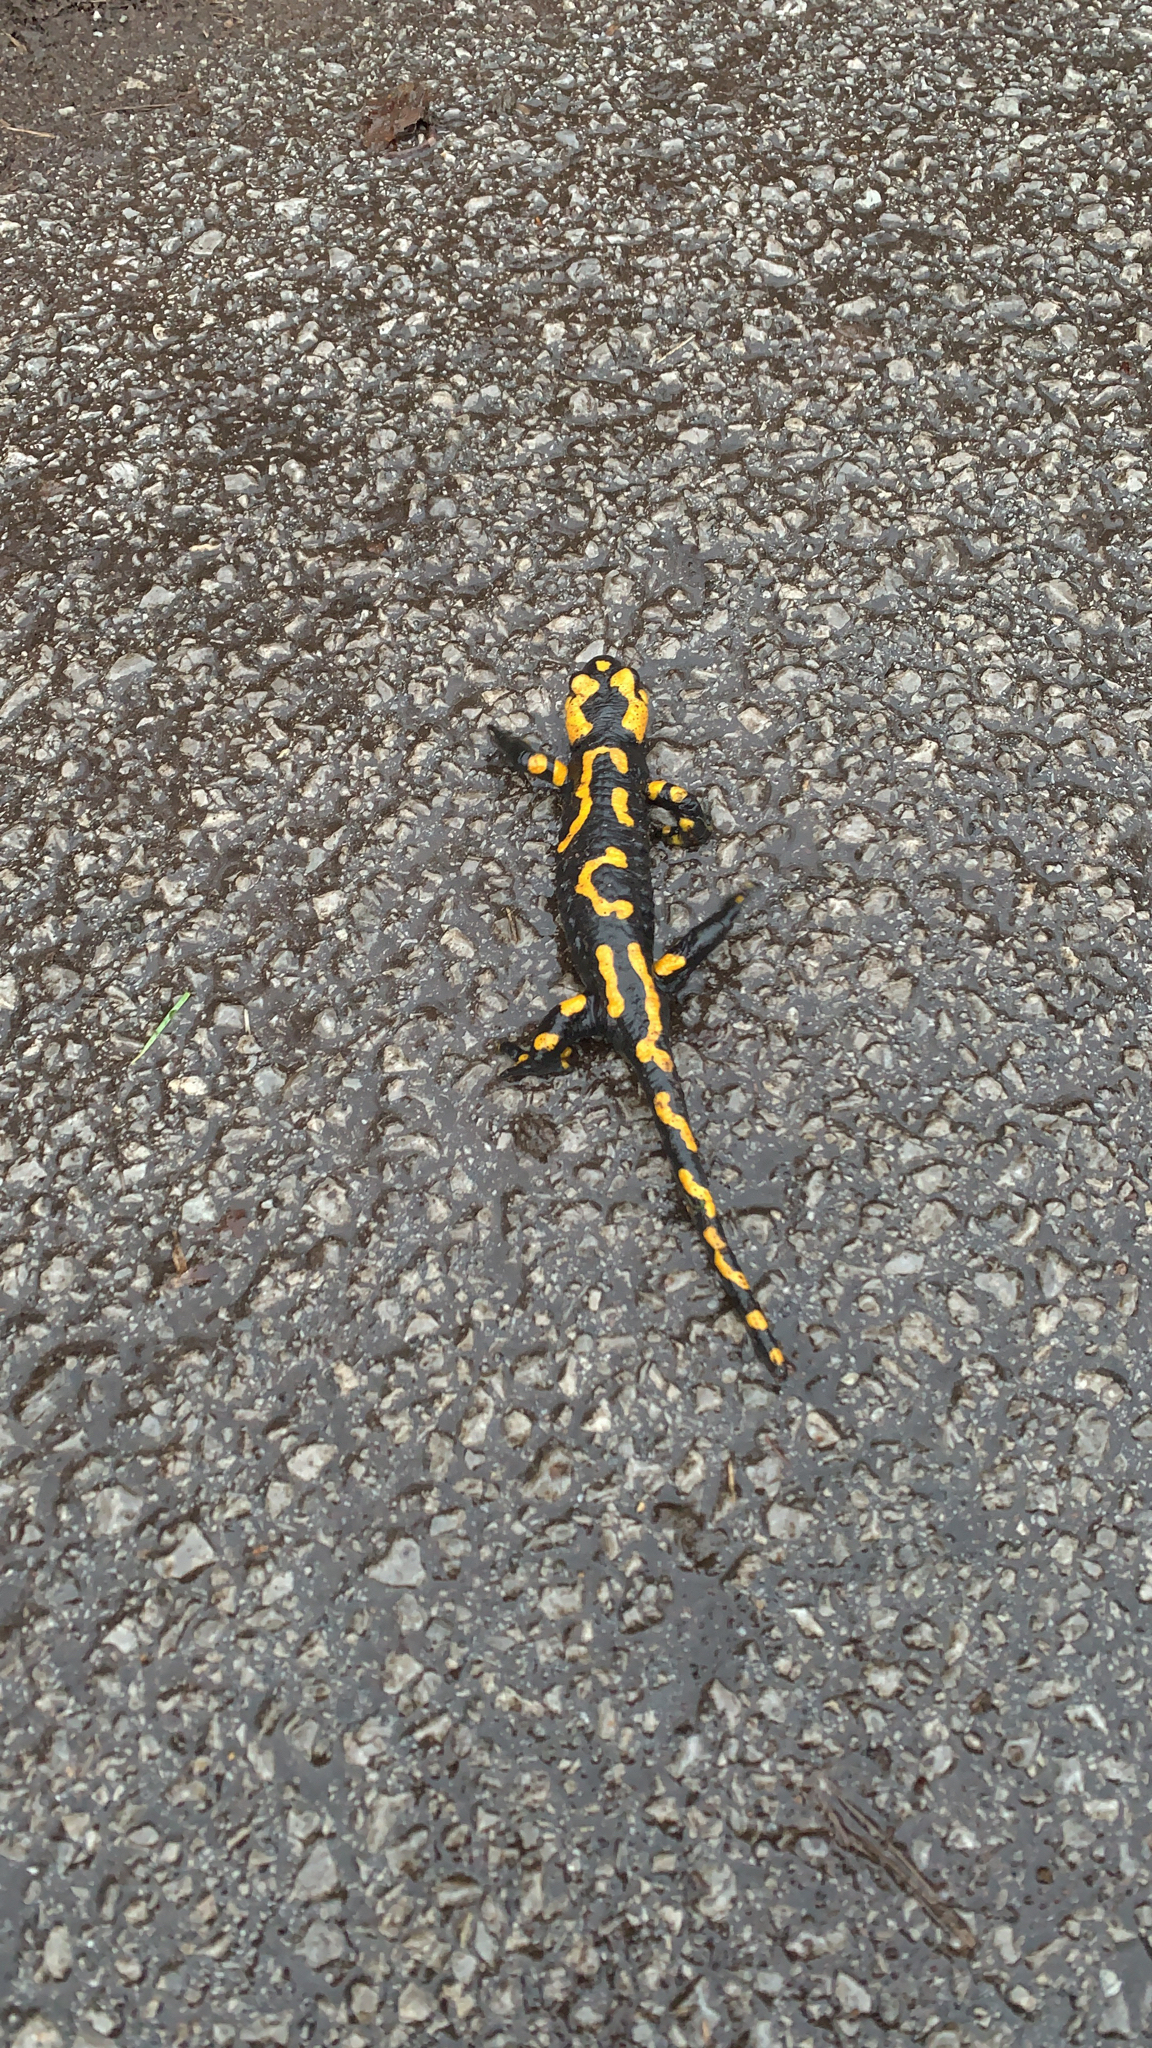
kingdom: Animalia
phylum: Chordata
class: Amphibia
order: Caudata
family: Salamandridae
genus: Salamandra
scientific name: Salamandra salamandra
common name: Fire salamander
